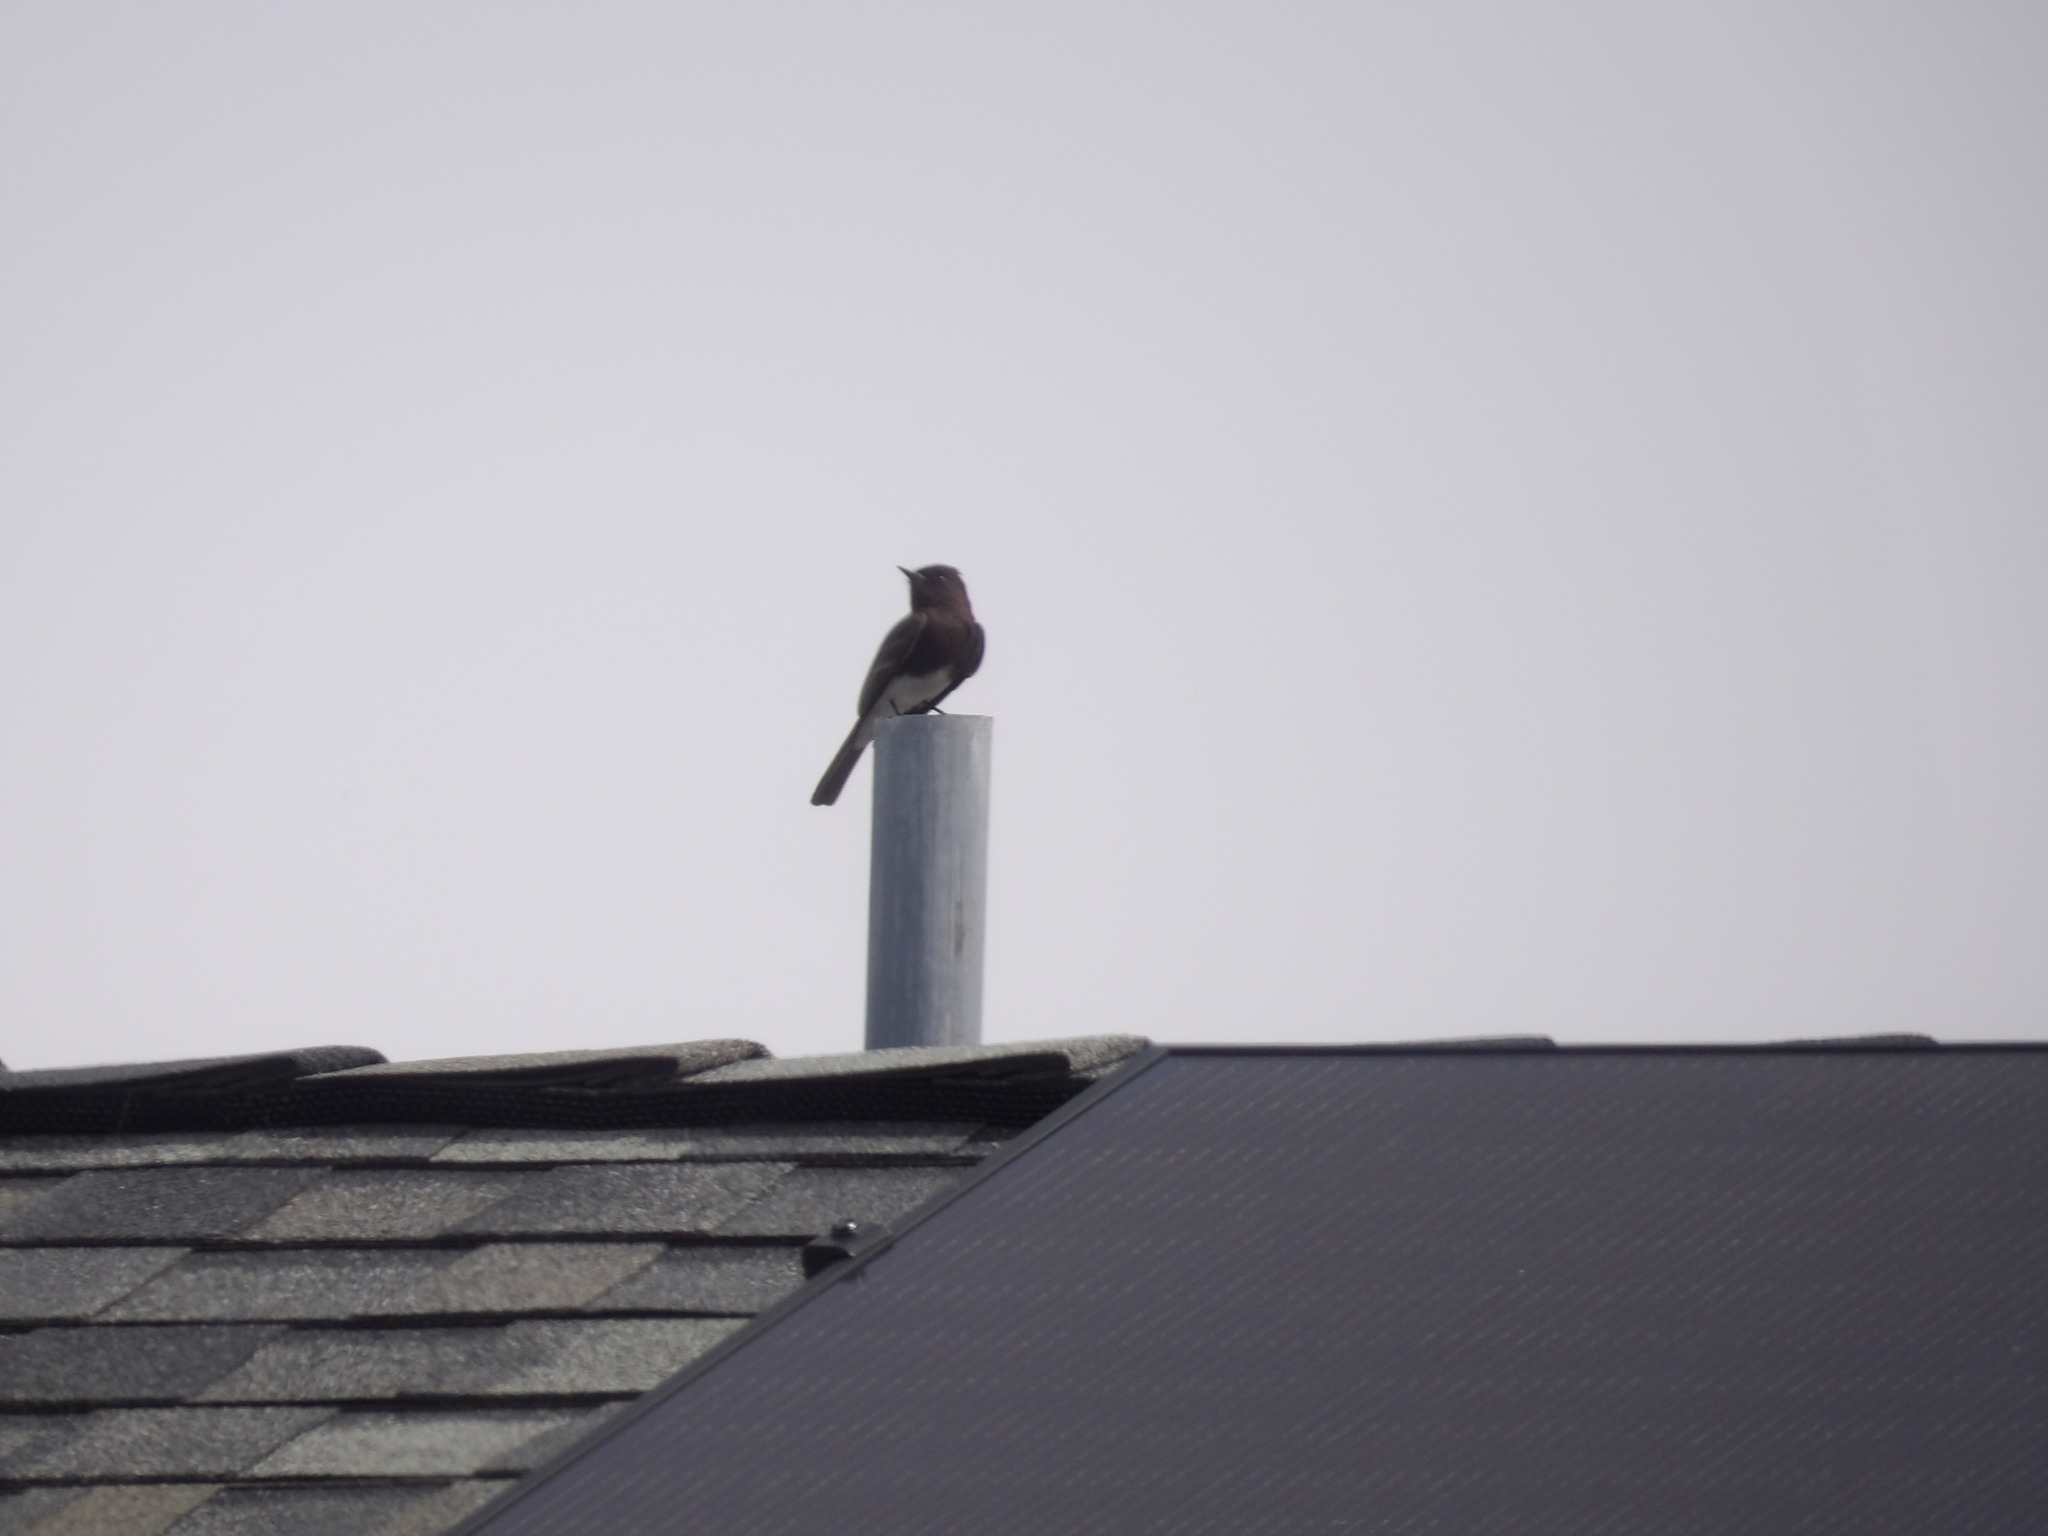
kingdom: Animalia
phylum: Chordata
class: Aves
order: Passeriformes
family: Tyrannidae
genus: Sayornis
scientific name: Sayornis nigricans
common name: Black phoebe
